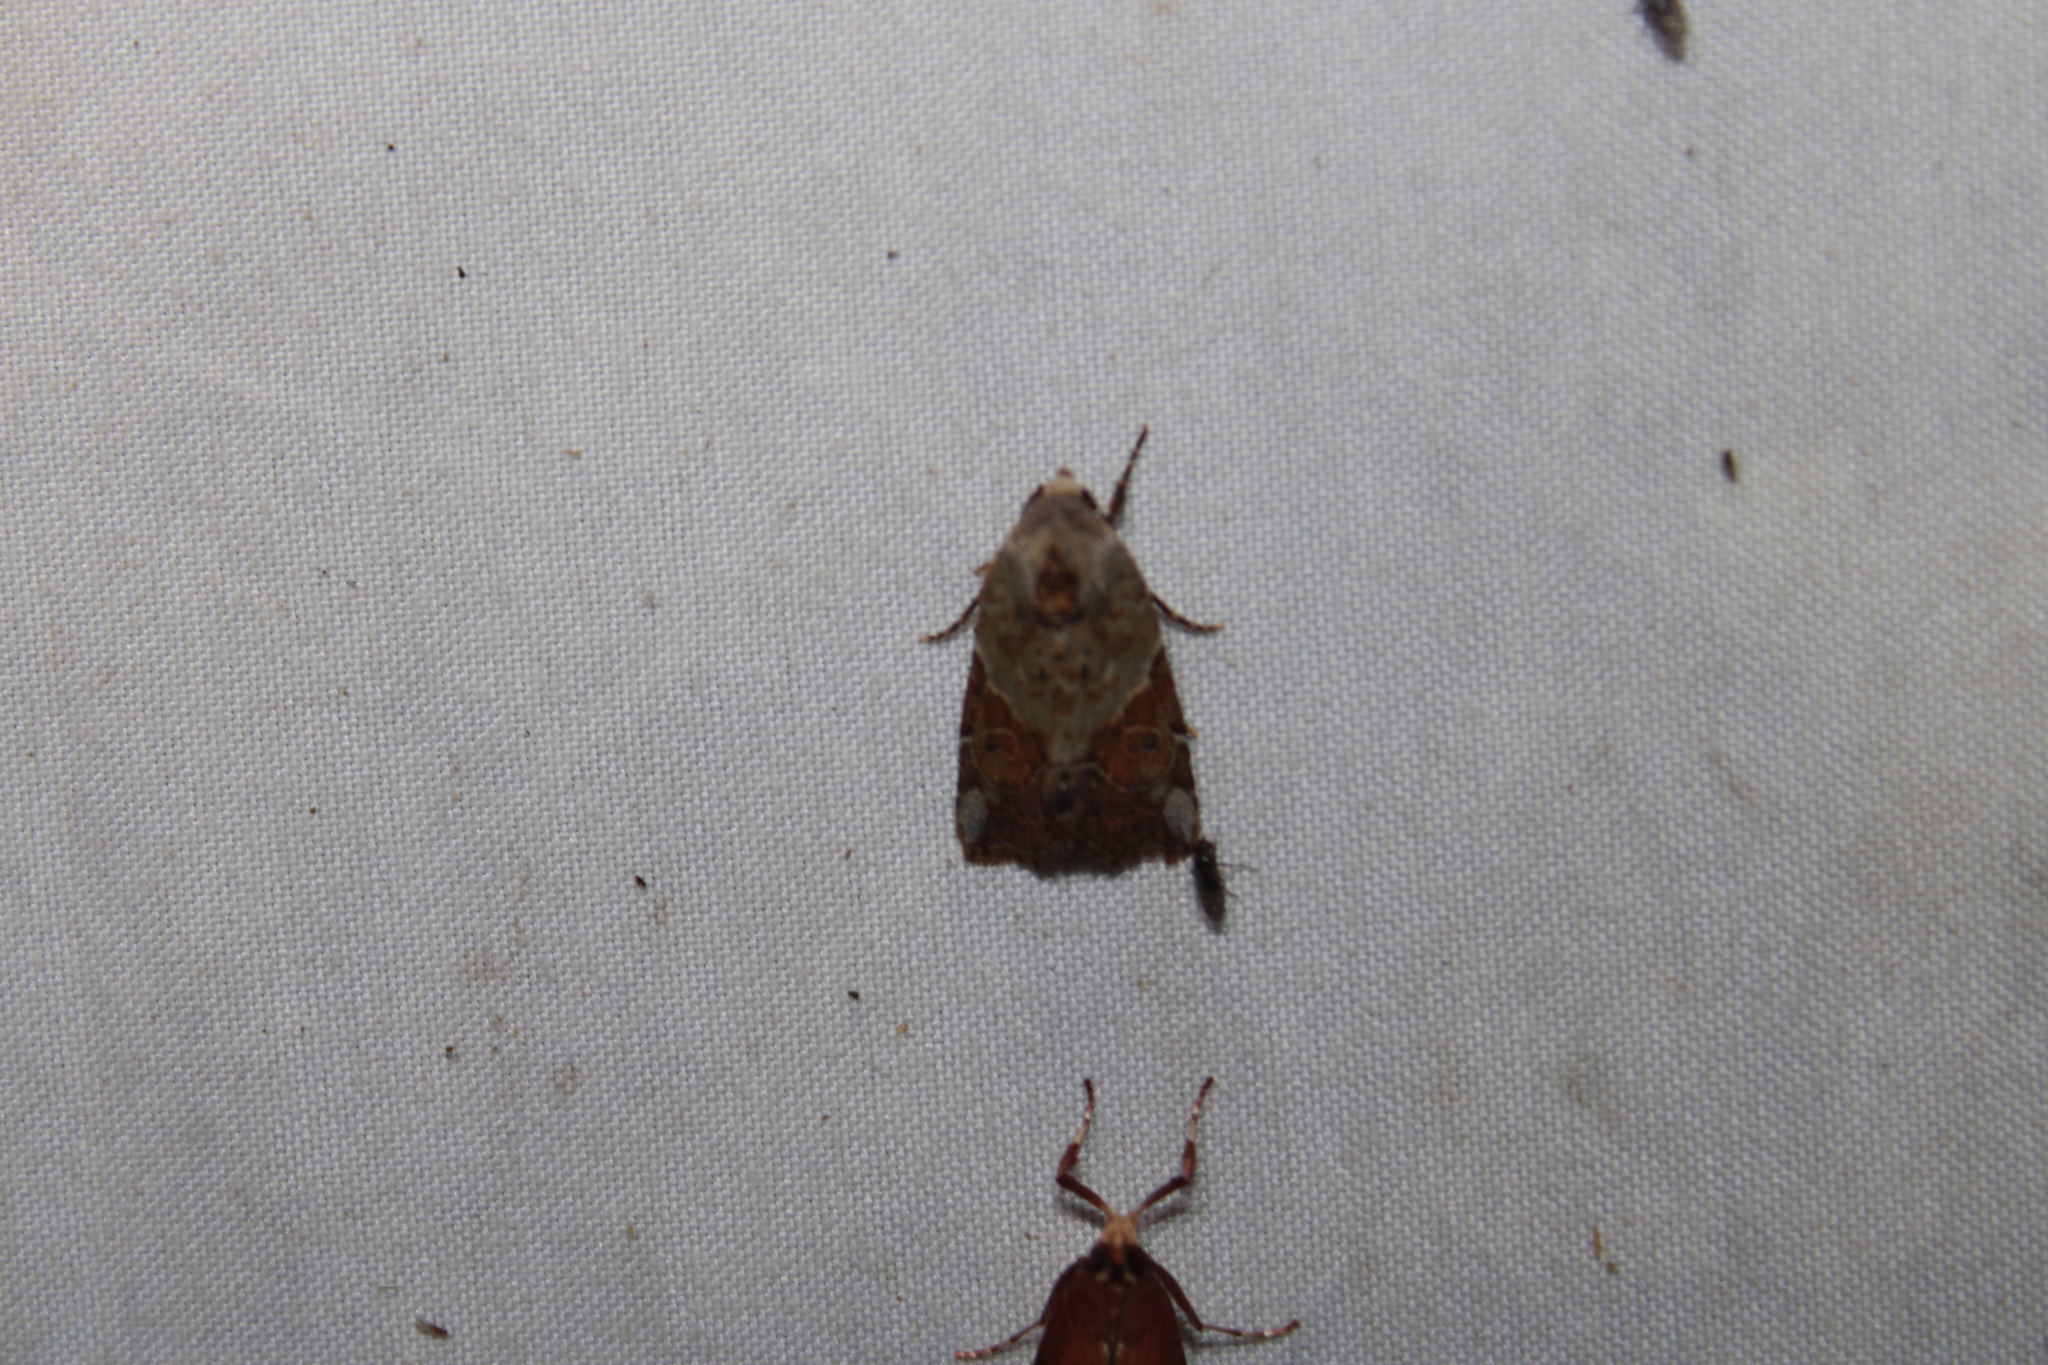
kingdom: Animalia
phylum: Arthropoda
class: Insecta
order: Lepidoptera
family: Noctuidae
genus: Gonodes
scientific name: Gonodes liquida
